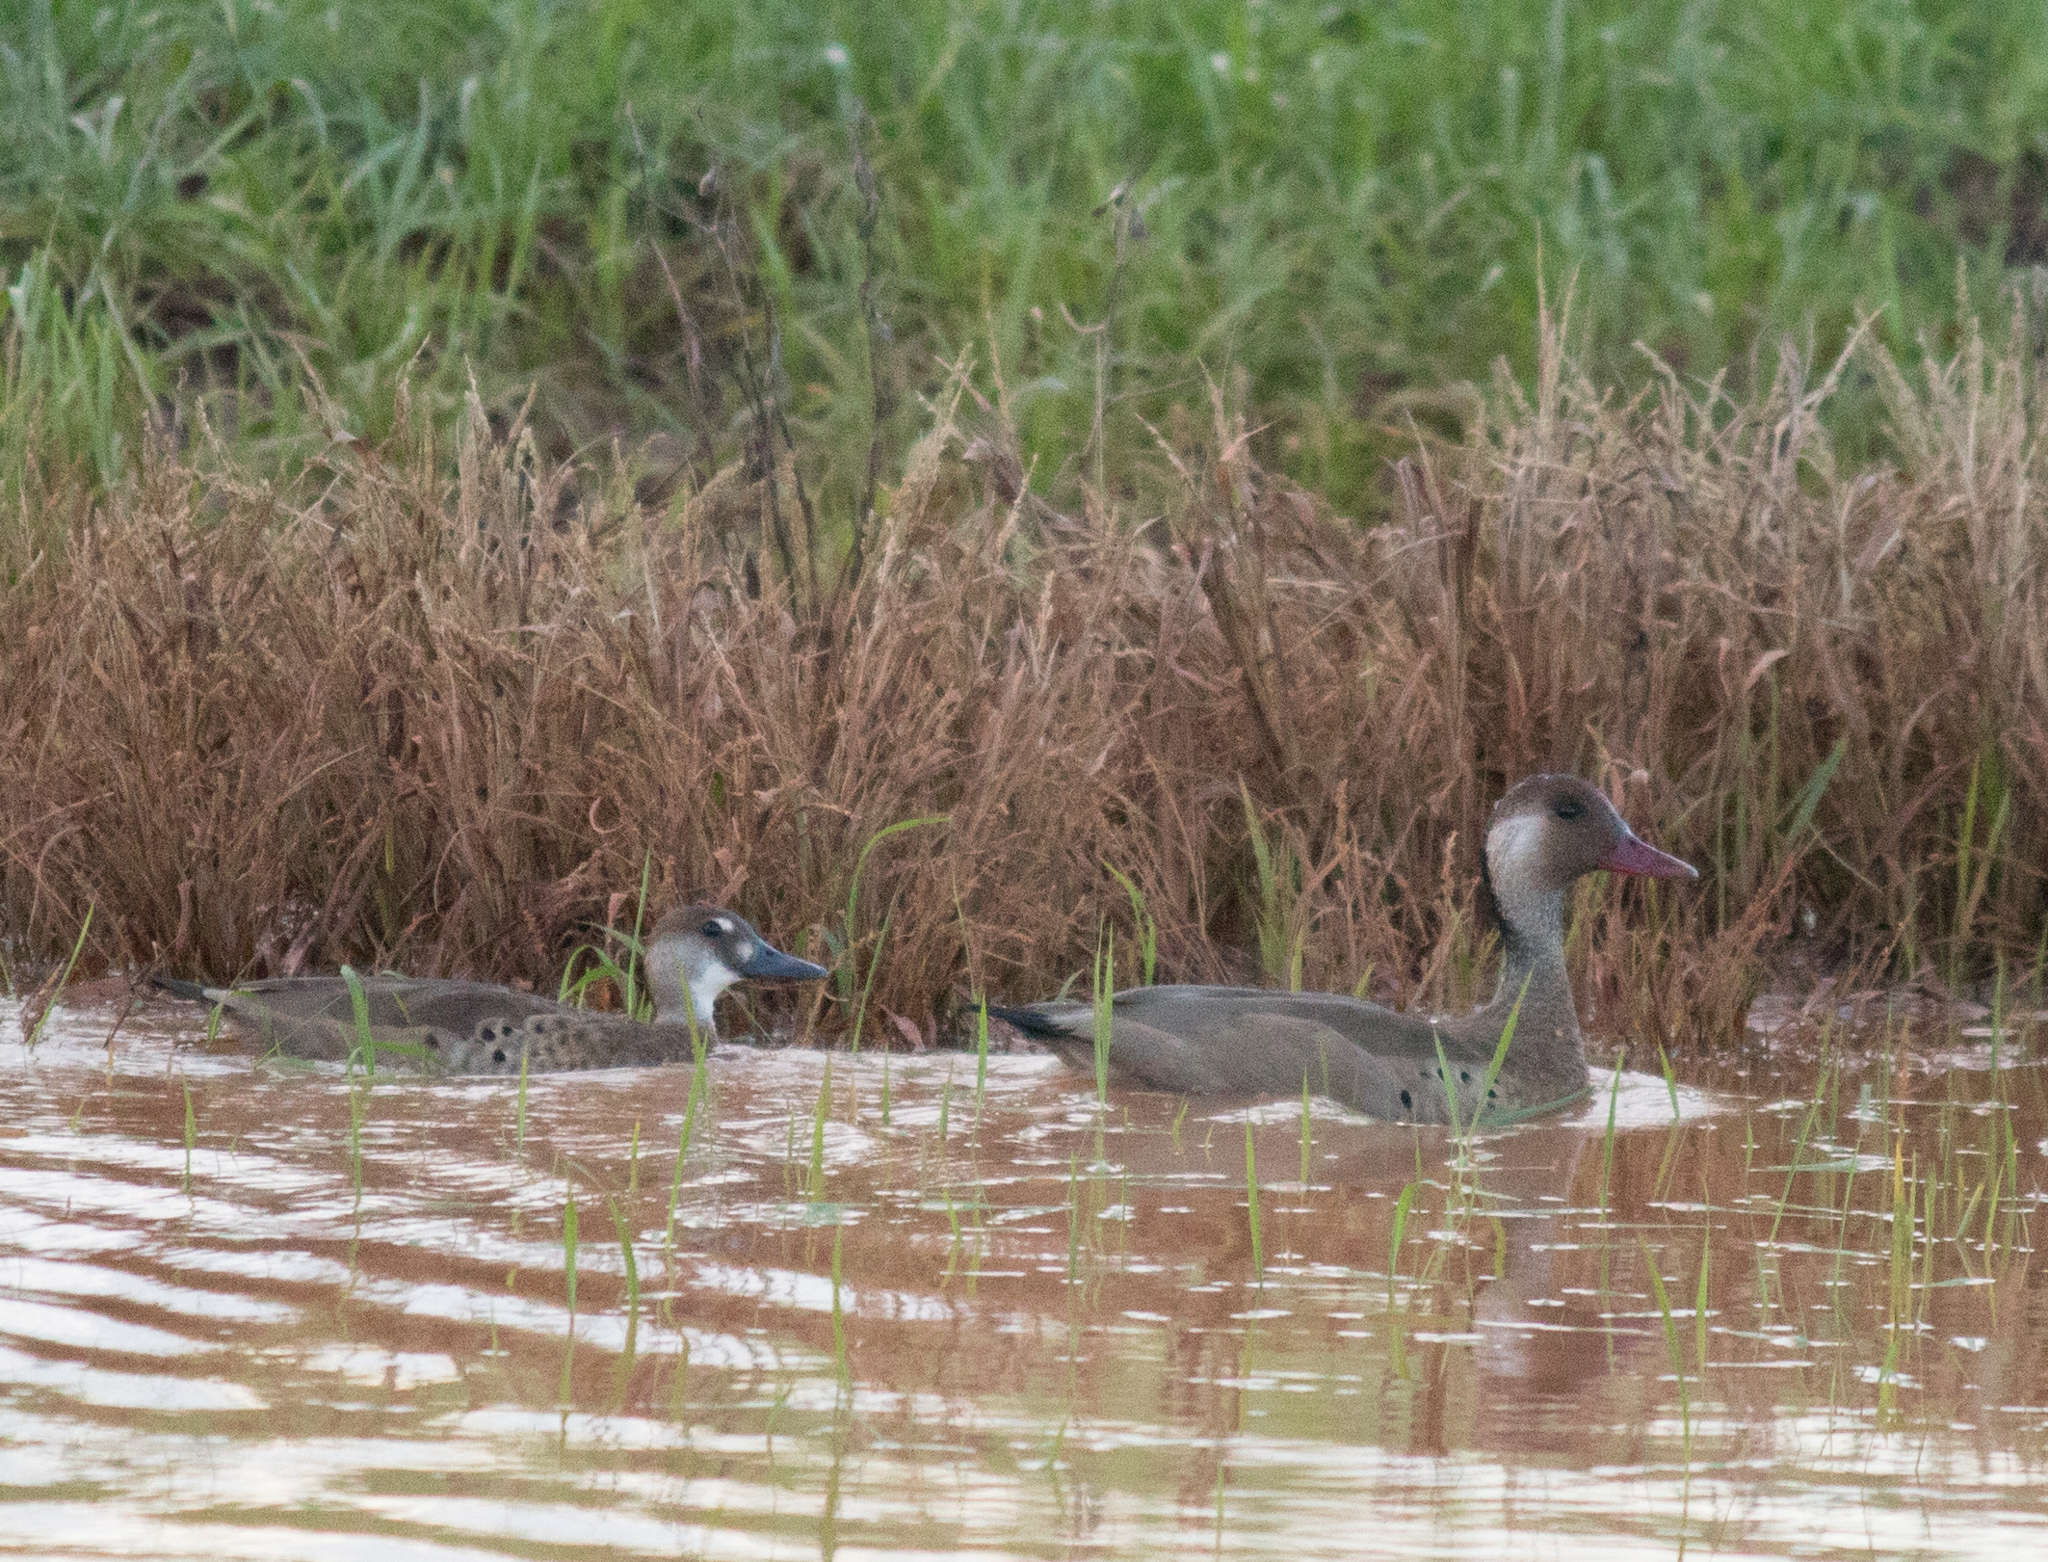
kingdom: Animalia
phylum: Chordata
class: Aves
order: Anseriformes
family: Anatidae
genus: Amazonetta
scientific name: Amazonetta brasiliensis
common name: Brazilian teal
